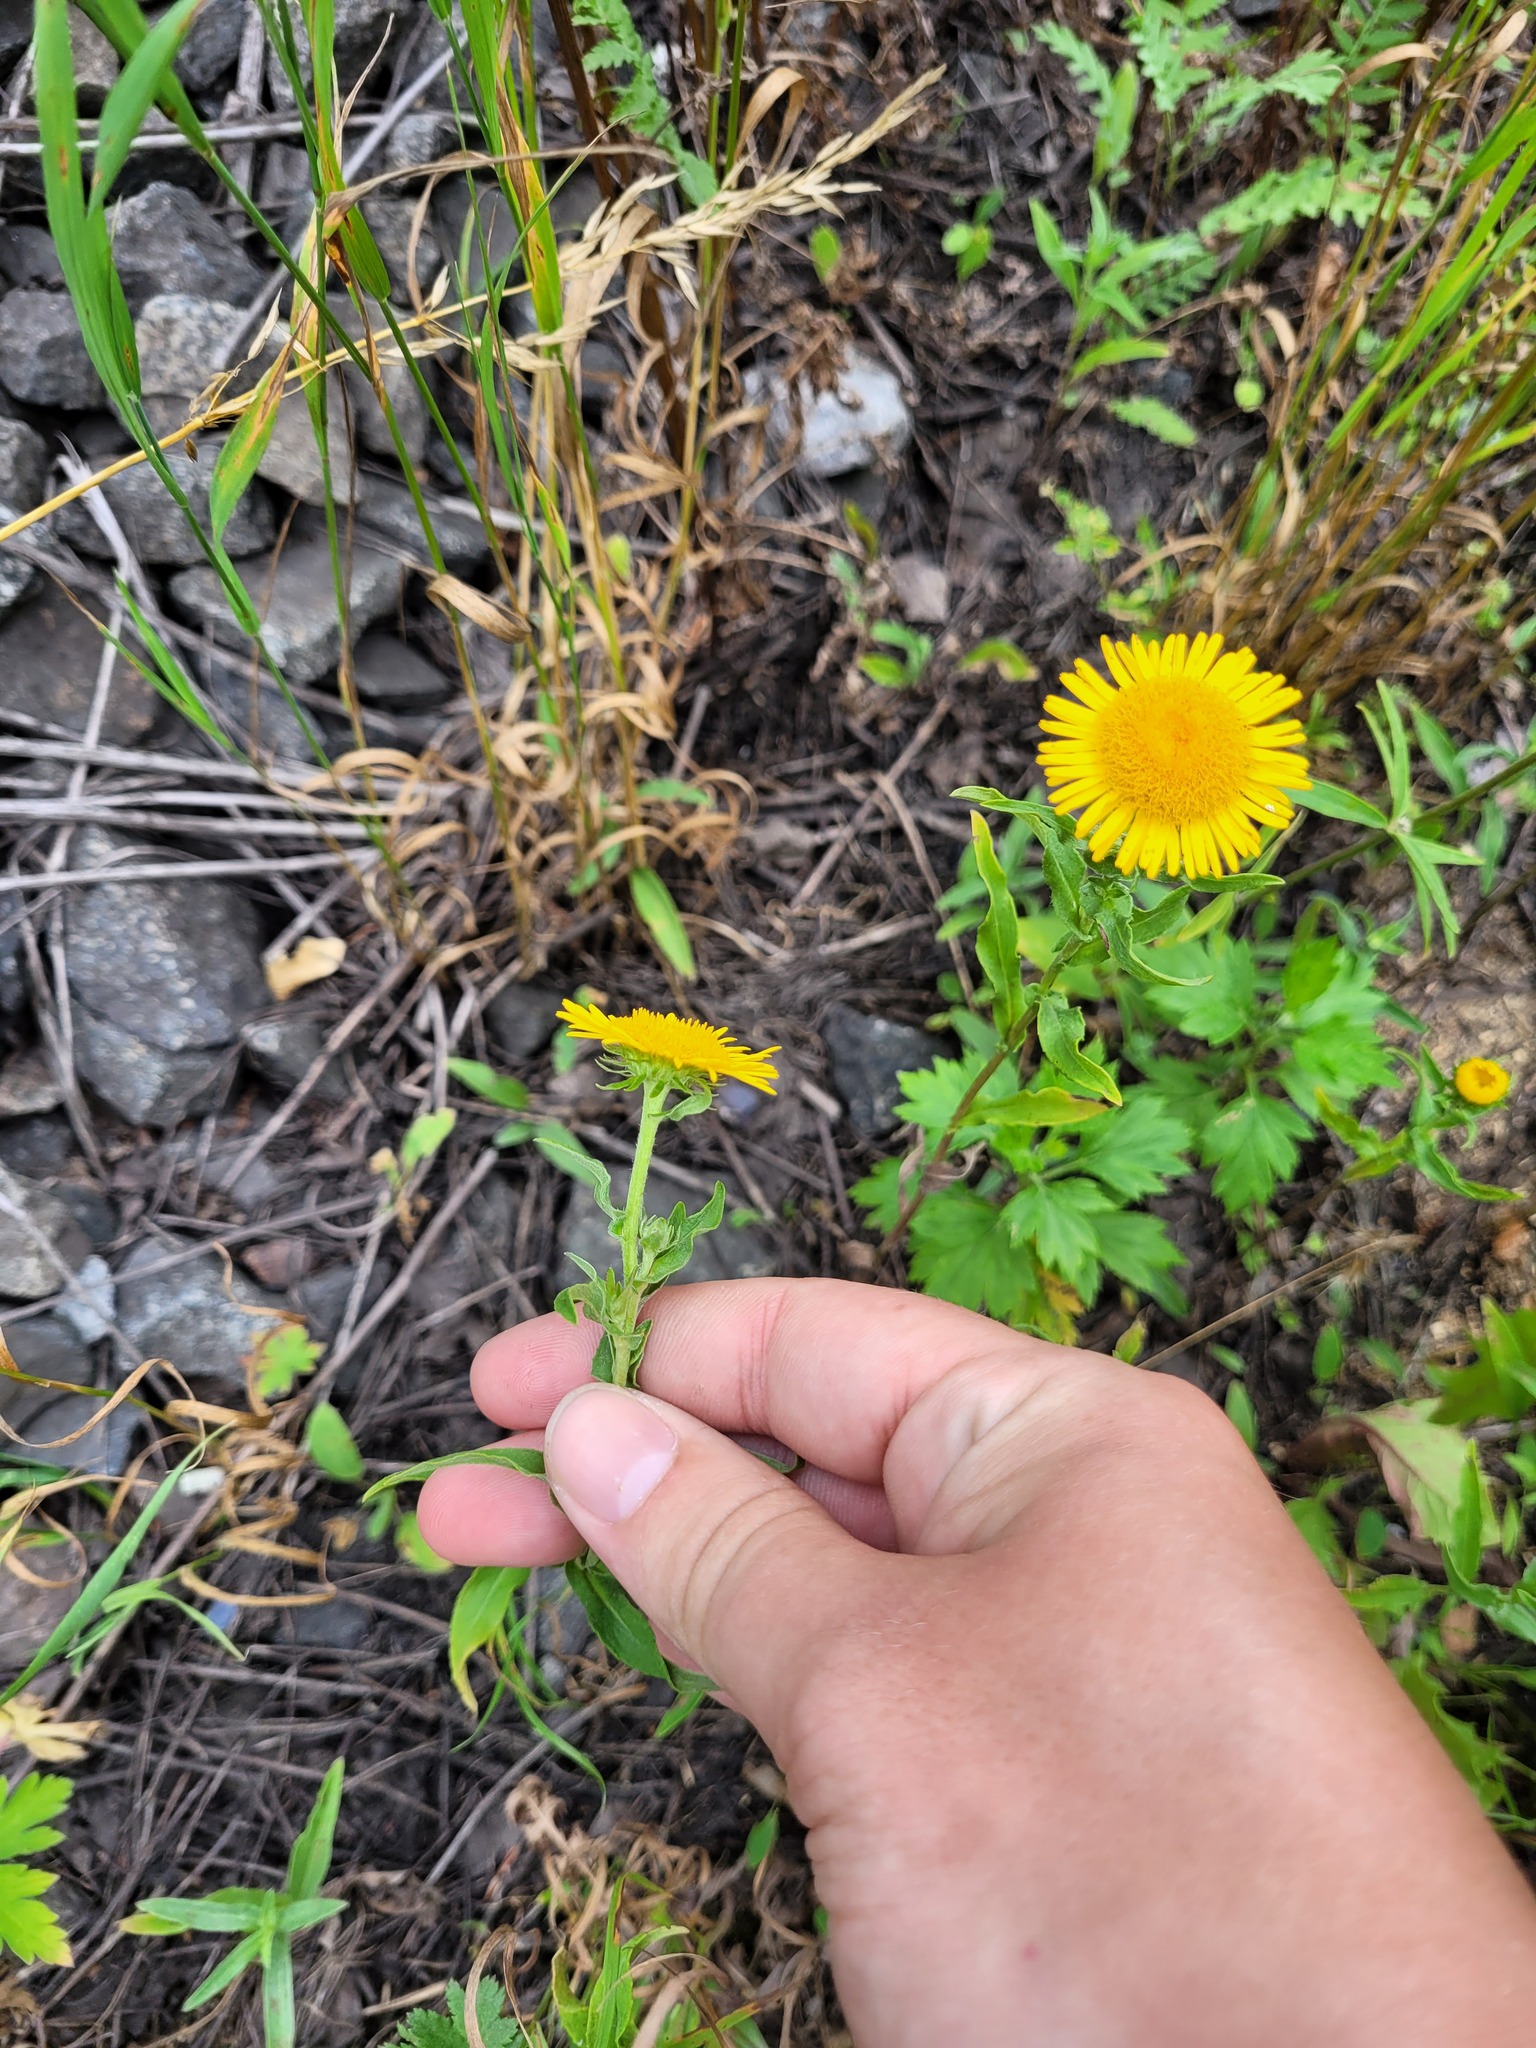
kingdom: Plantae
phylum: Tracheophyta
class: Magnoliopsida
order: Asterales
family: Asteraceae
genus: Pentanema
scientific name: Pentanema britannicum
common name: British elecampane
